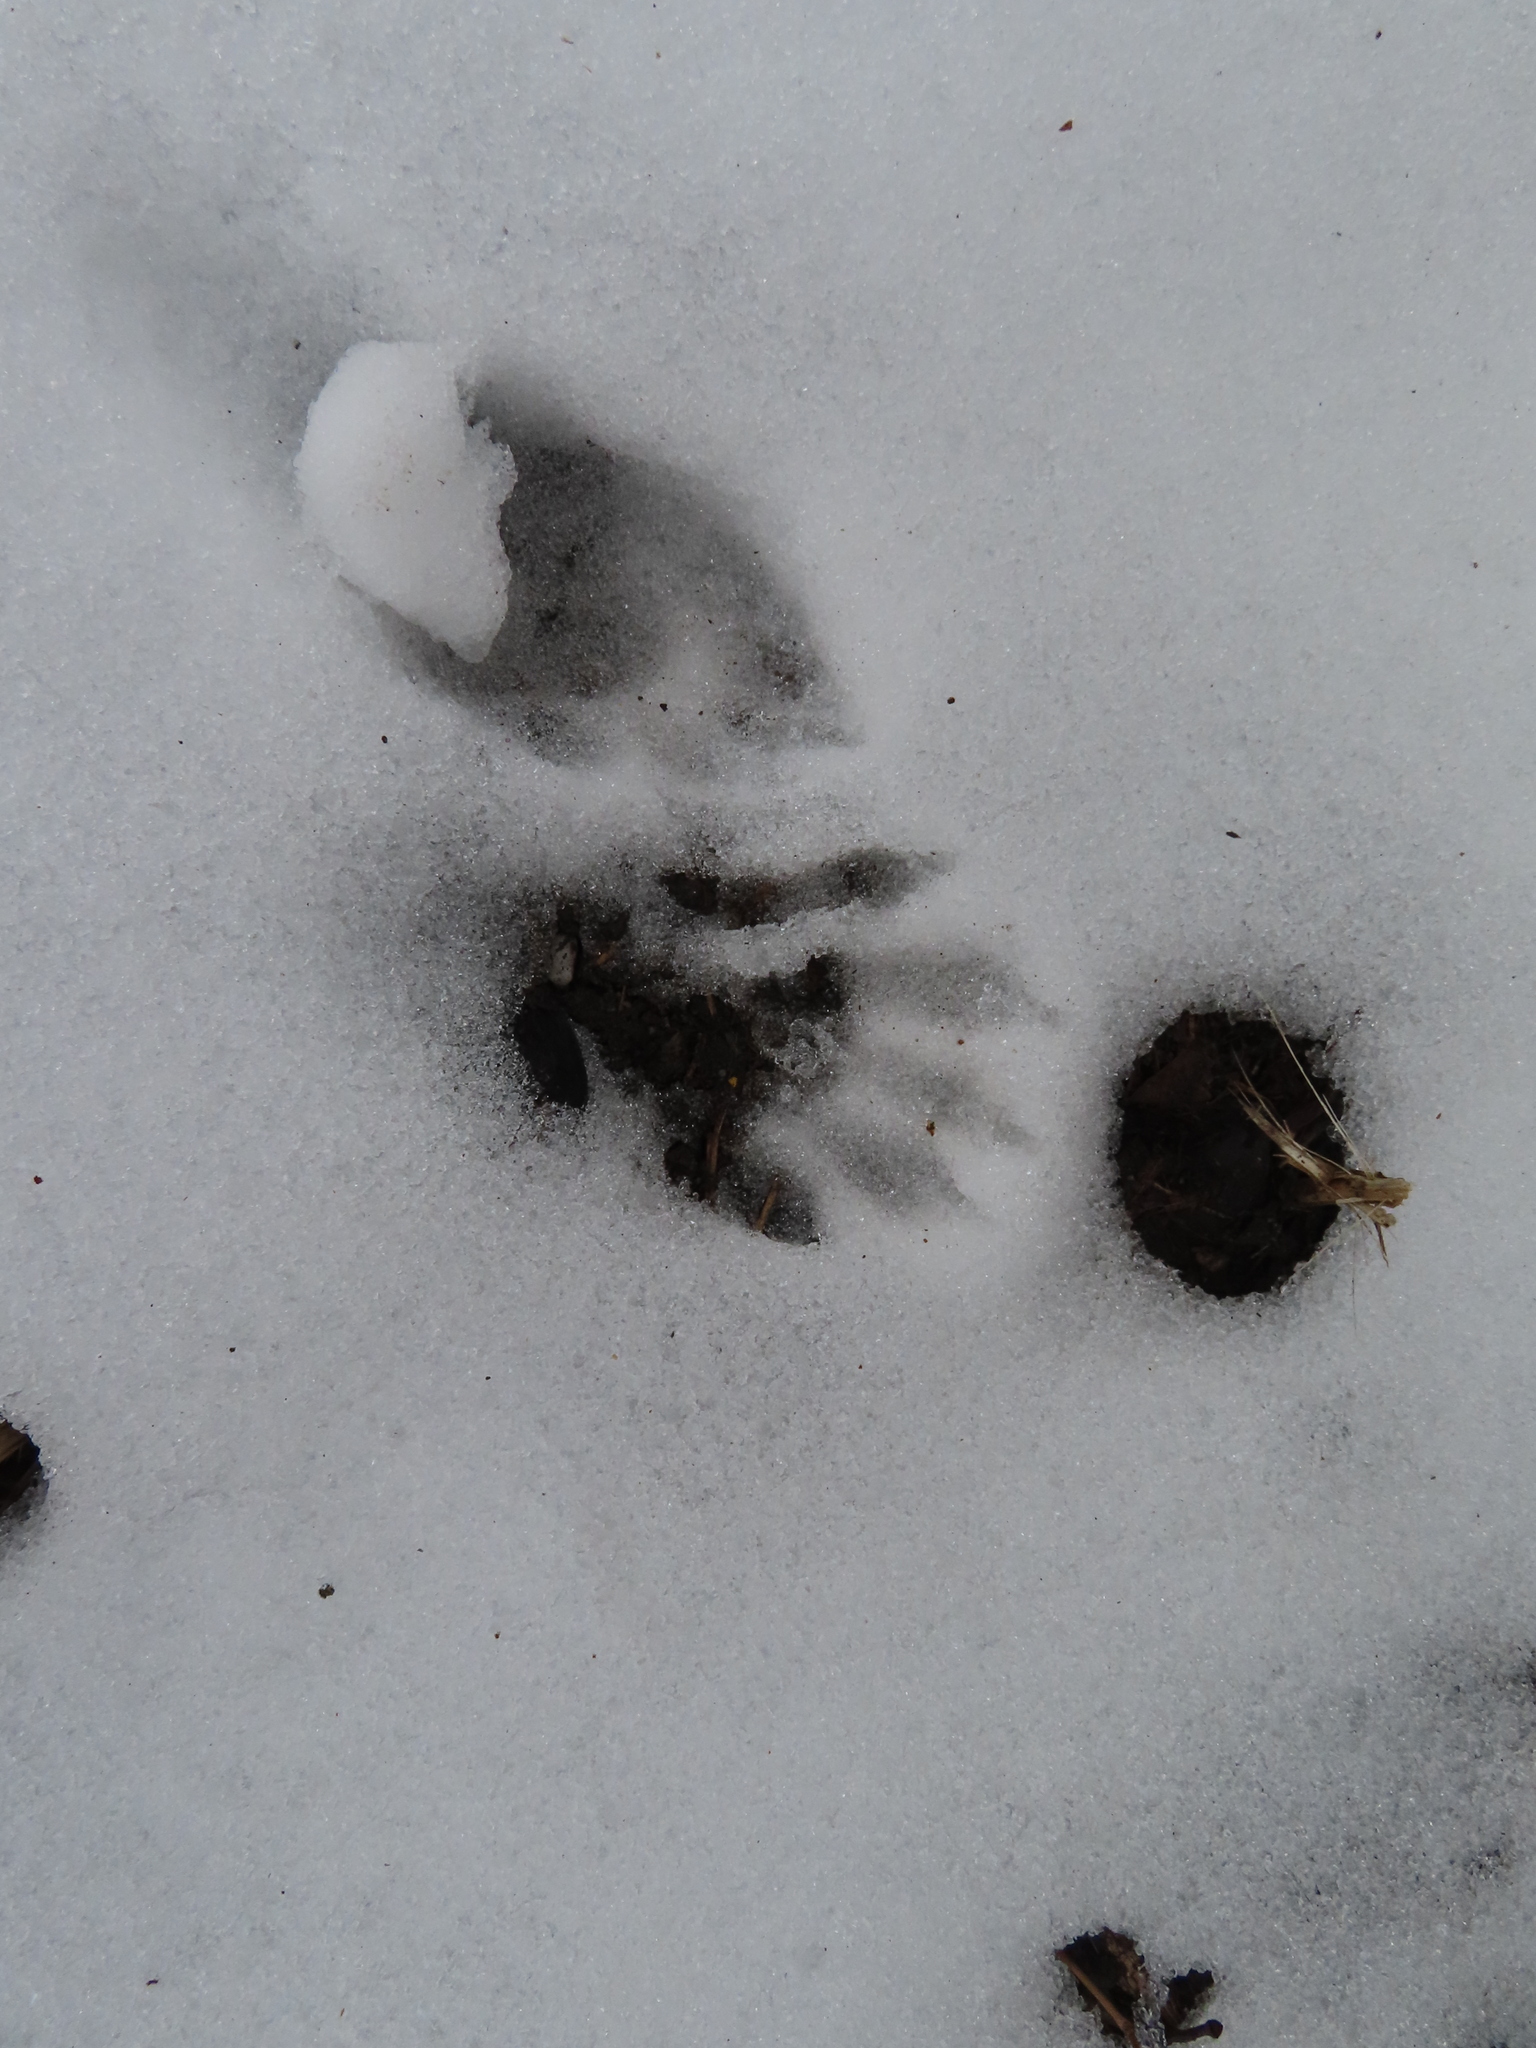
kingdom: Animalia
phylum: Chordata
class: Mammalia
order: Carnivora
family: Procyonidae
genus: Procyon
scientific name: Procyon lotor
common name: Raccoon
